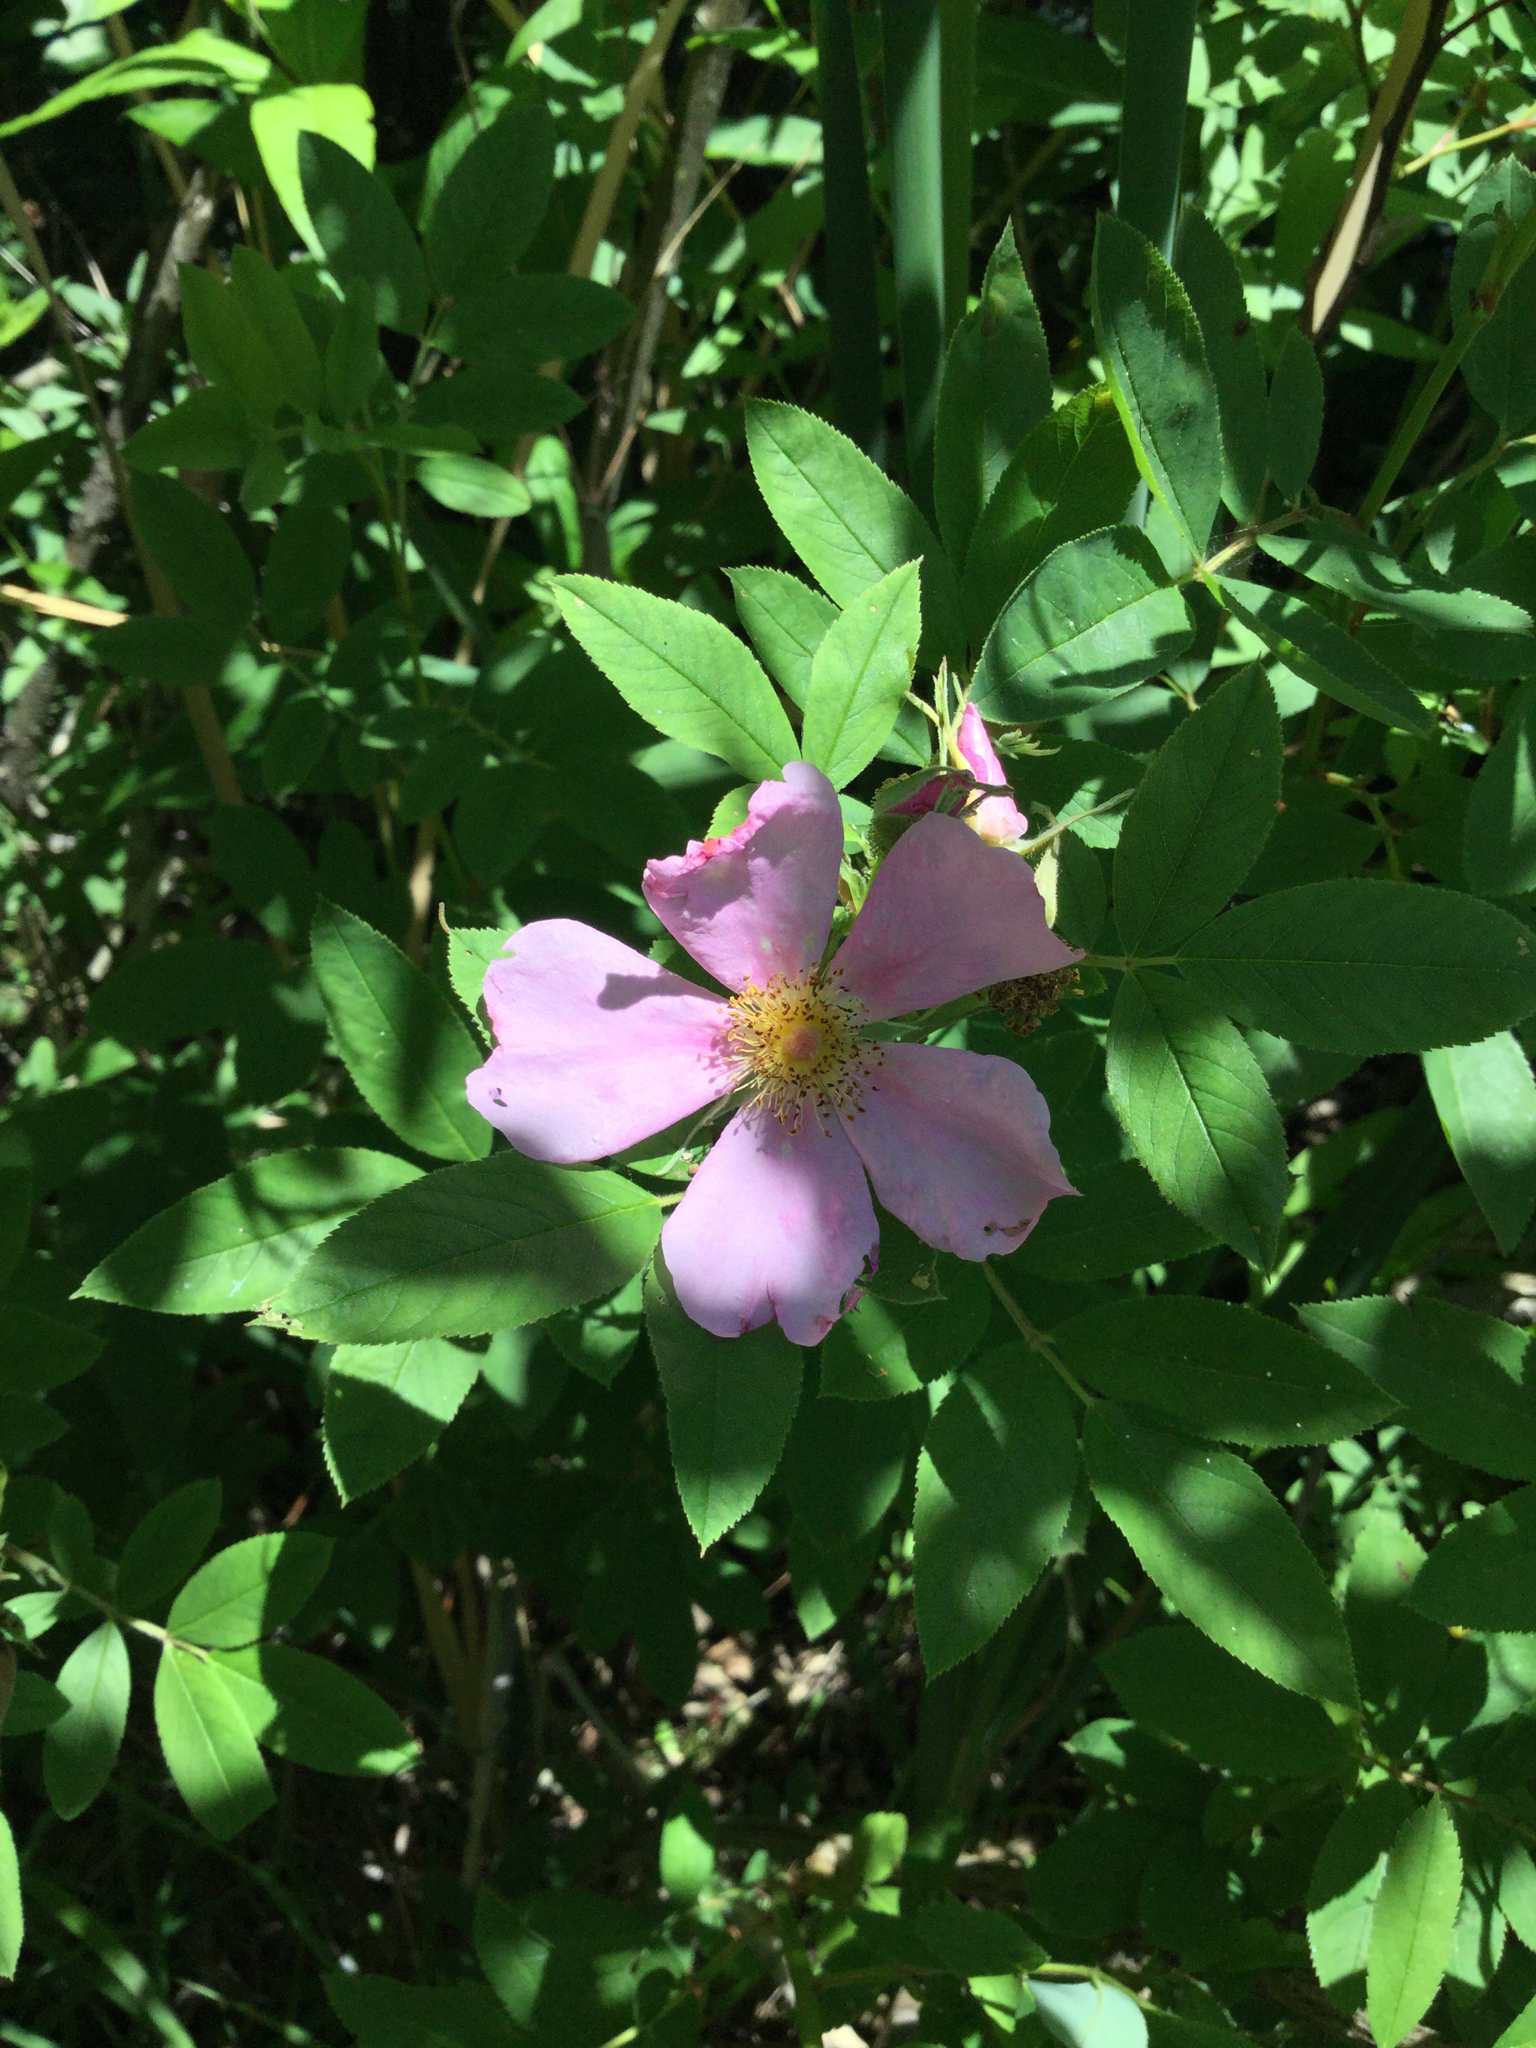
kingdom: Plantae
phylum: Tracheophyta
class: Magnoliopsida
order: Rosales
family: Rosaceae
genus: Rosa
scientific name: Rosa palustris
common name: Swamp rose
